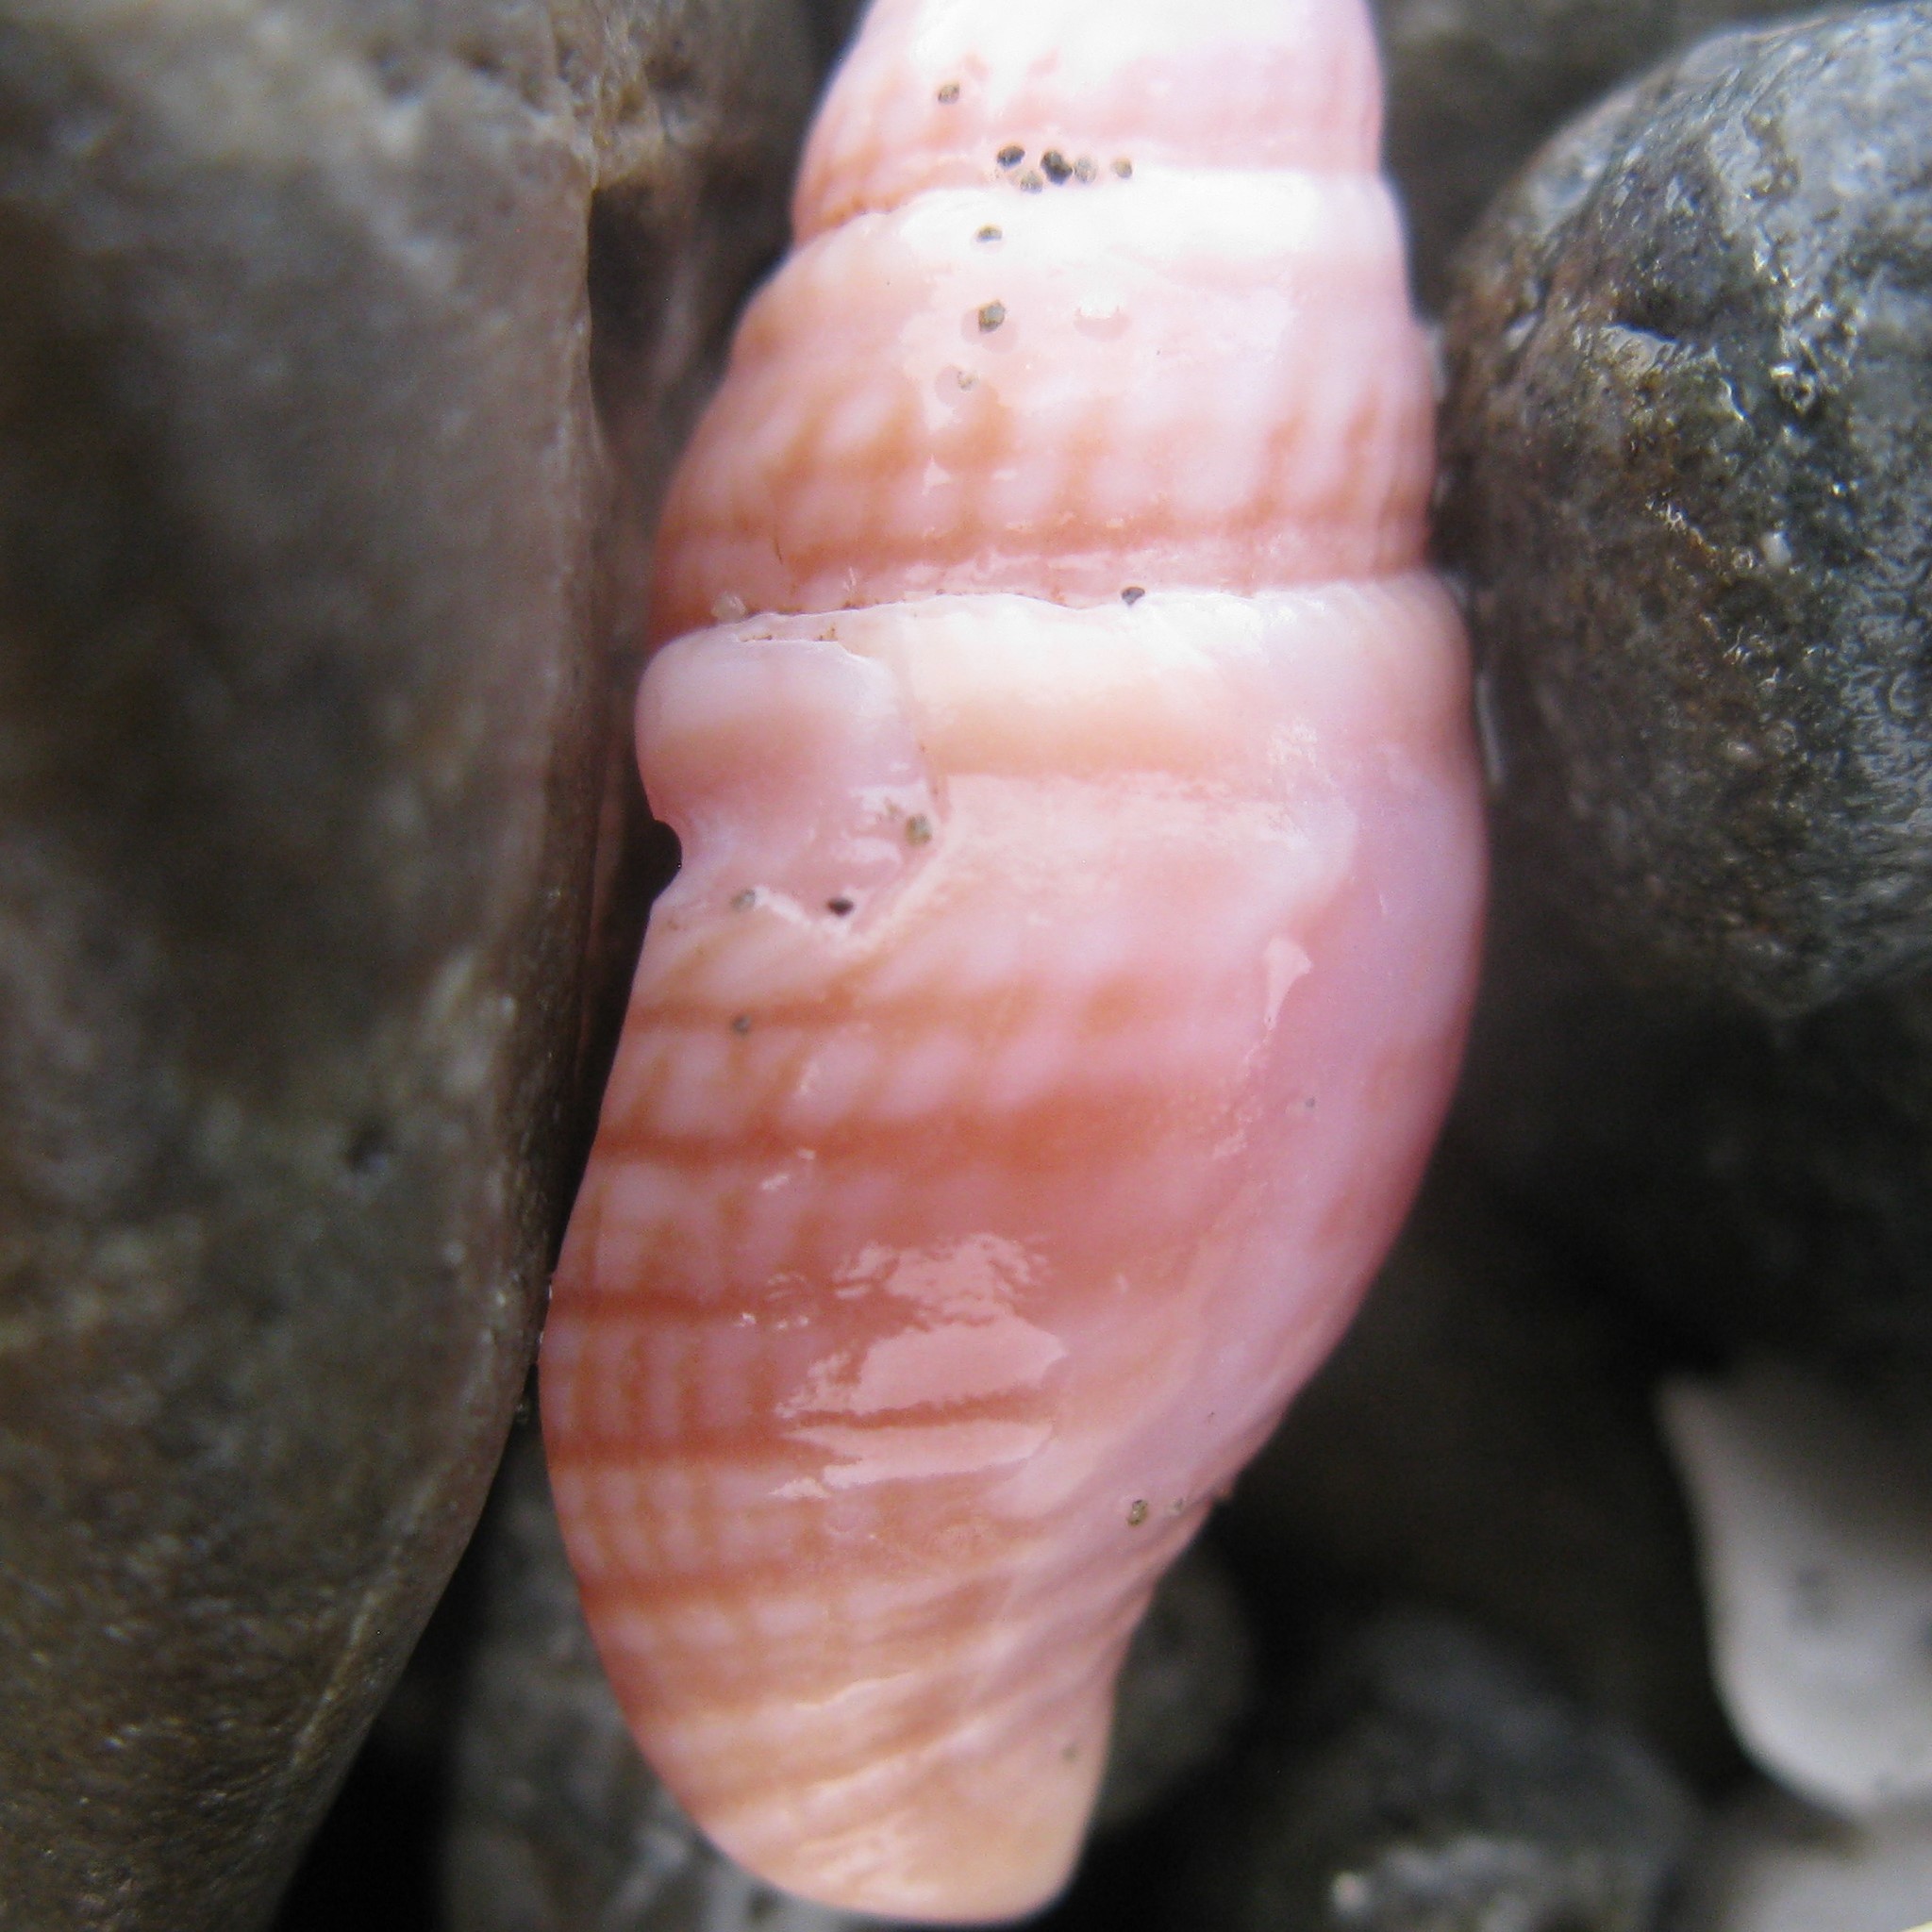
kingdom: Animalia
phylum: Mollusca
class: Gastropoda
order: Neogastropoda
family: Borsoniidae
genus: Phenatoma
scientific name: Phenatoma roseum
